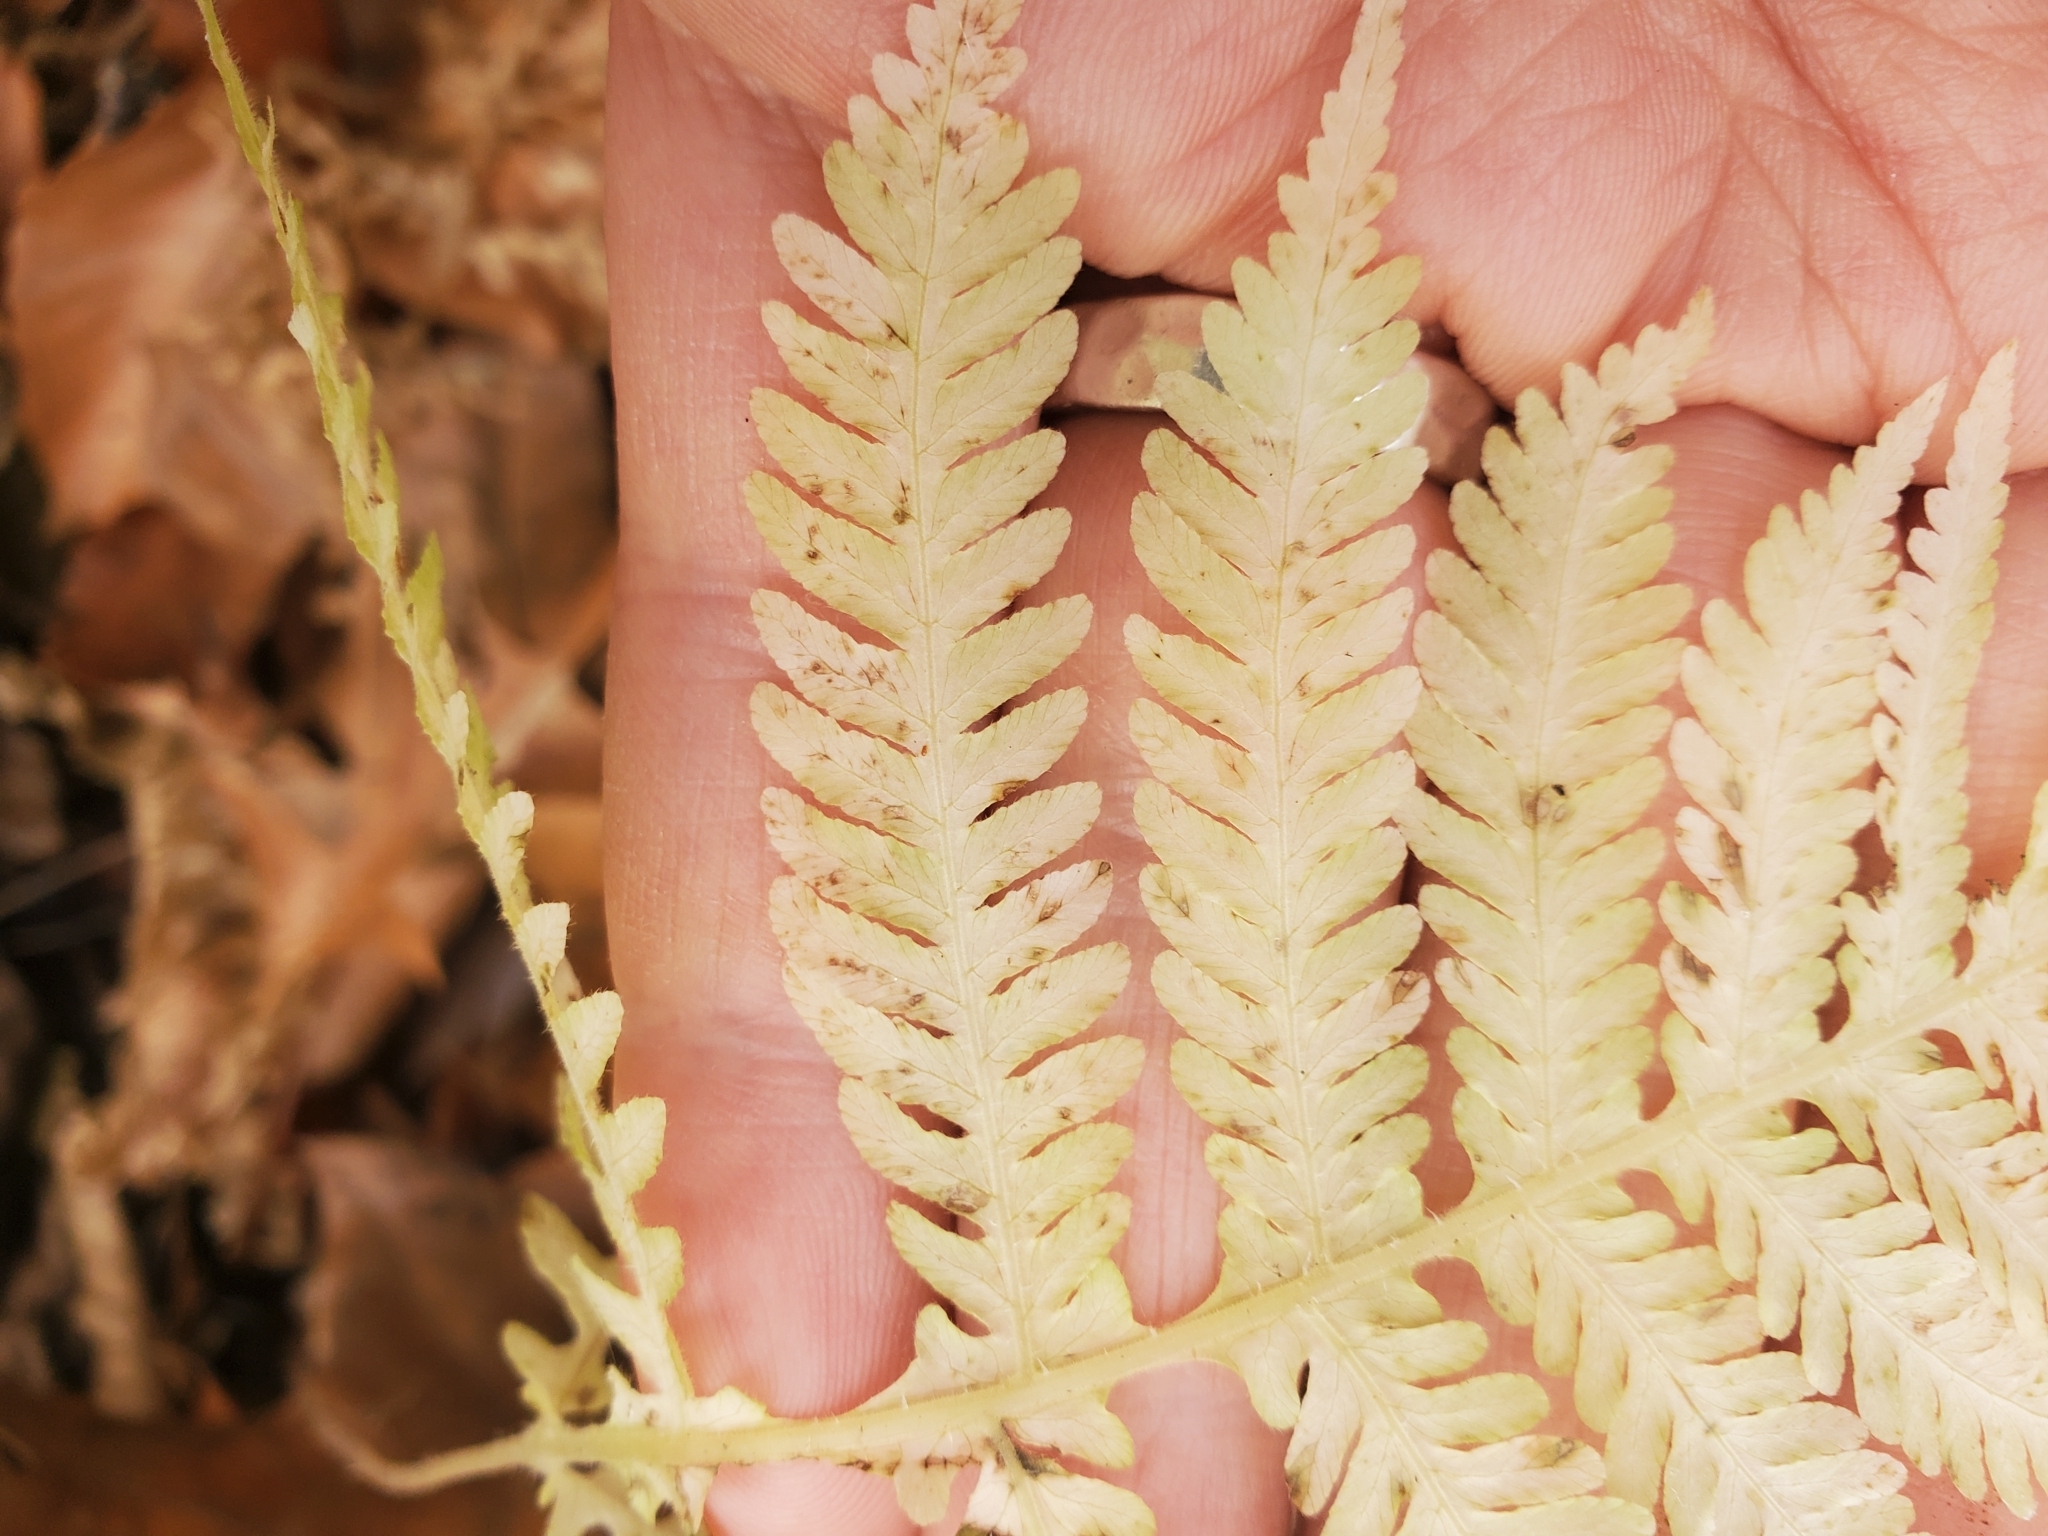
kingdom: Plantae
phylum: Tracheophyta
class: Polypodiopsida
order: Polypodiales
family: Thelypteridaceae
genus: Phegopteris
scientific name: Phegopteris hexagonoptera
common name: Broad beech fern
